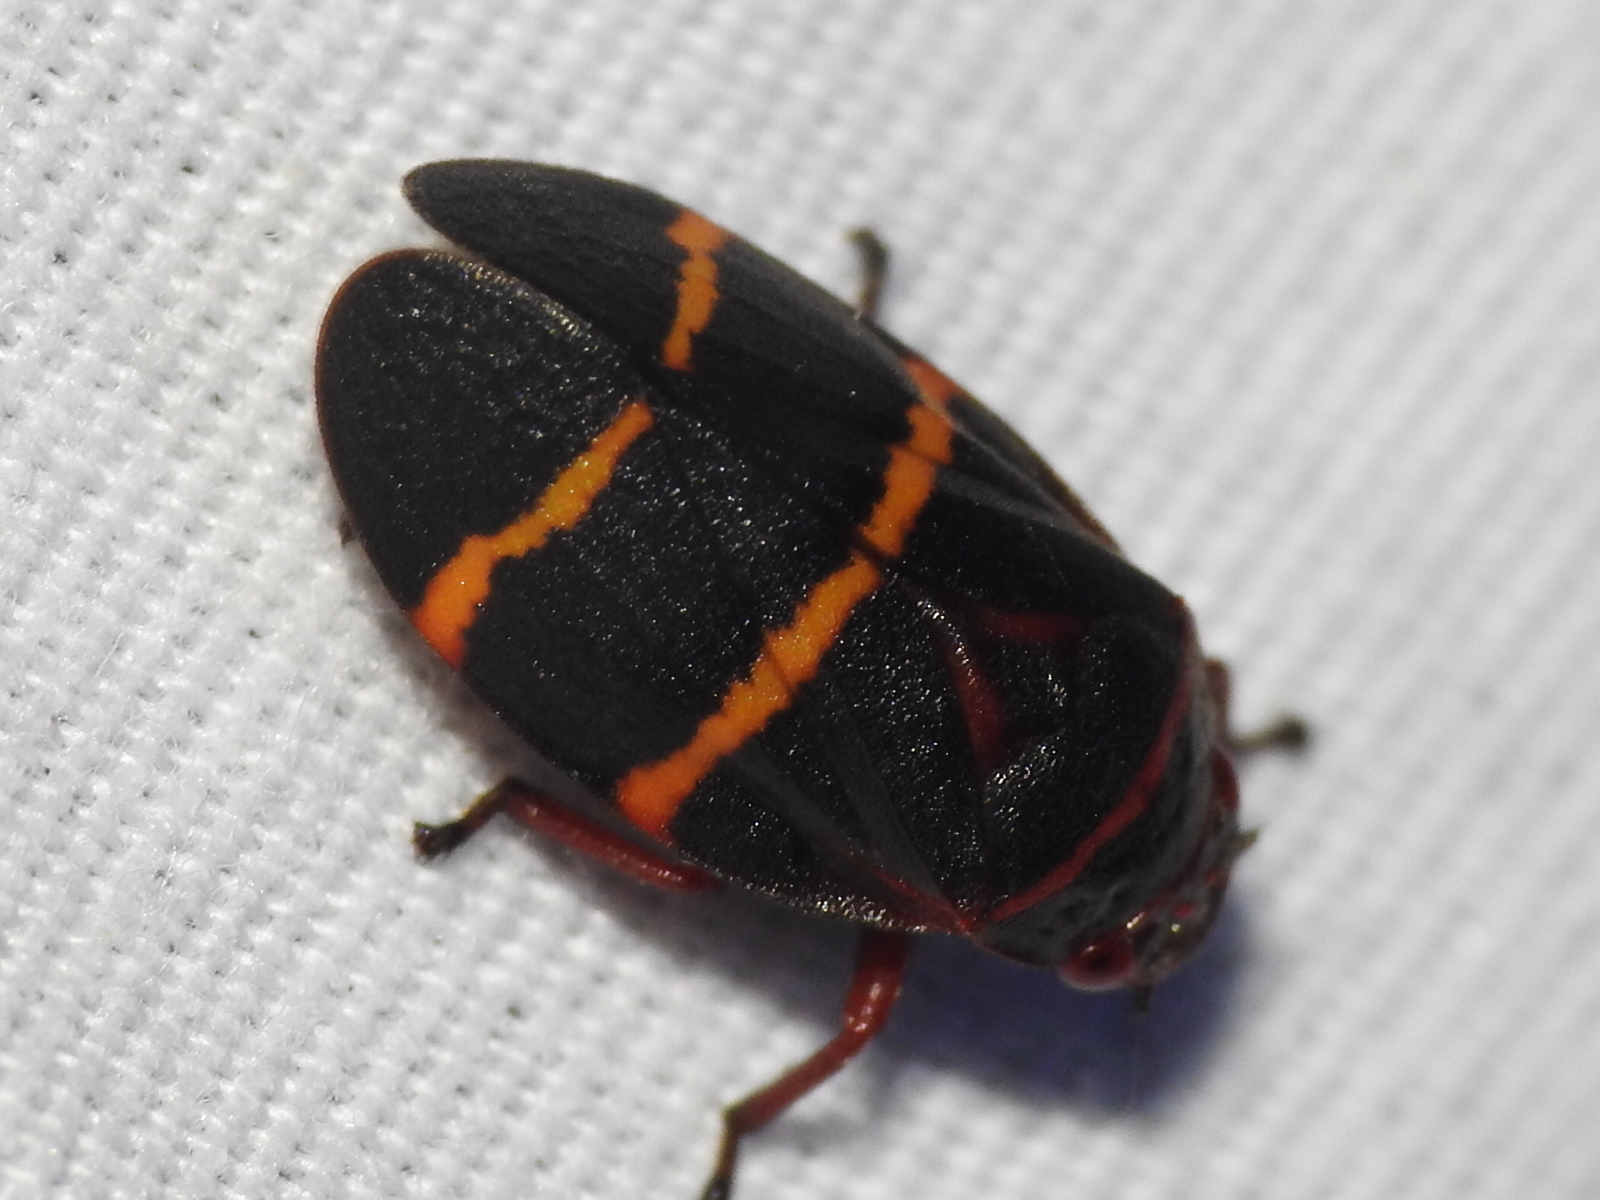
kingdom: Animalia
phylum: Arthropoda
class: Insecta
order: Hemiptera
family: Cercopidae
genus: Prosapia
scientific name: Prosapia bicincta
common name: Twolined spittlebug
